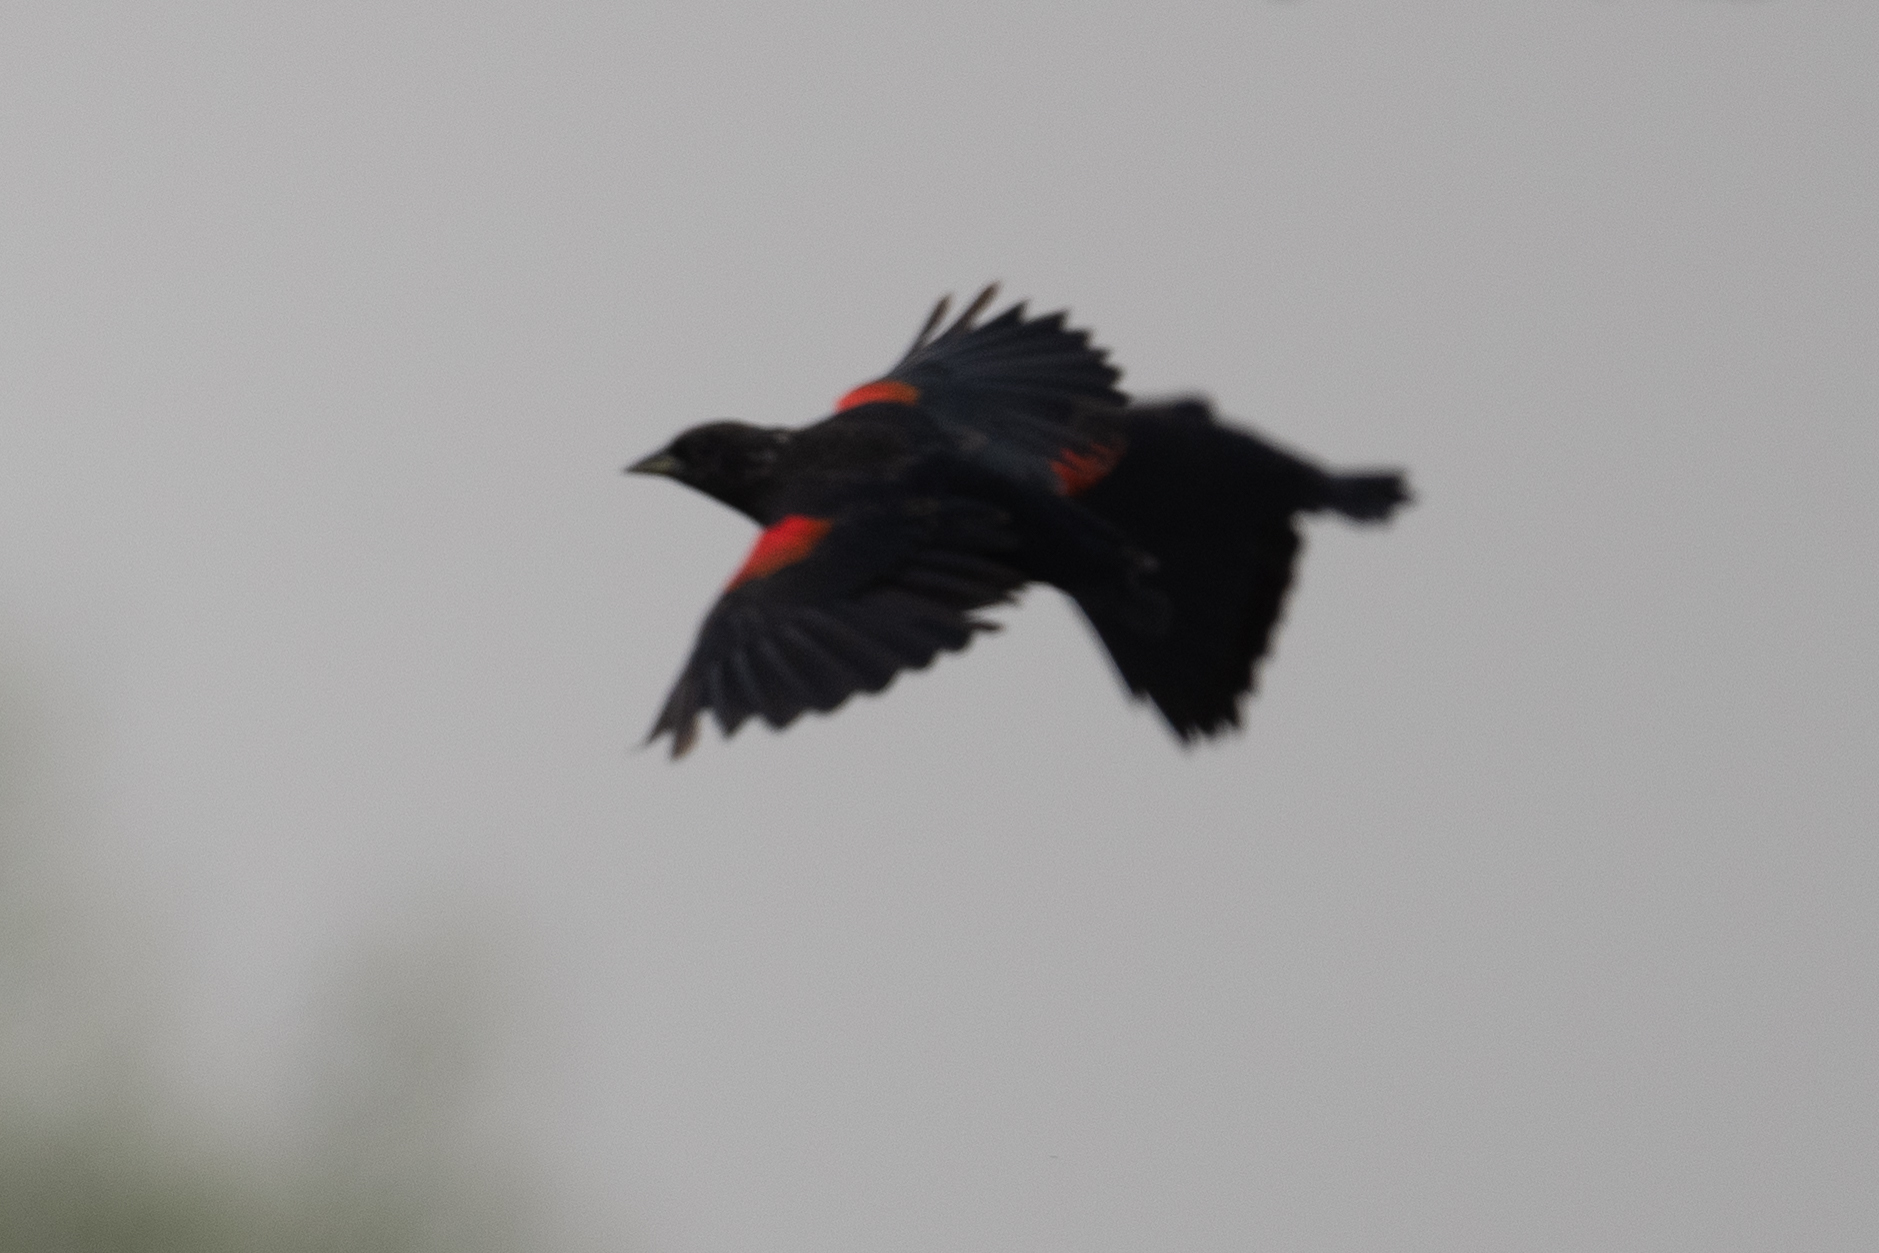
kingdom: Animalia
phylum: Chordata
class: Aves
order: Passeriformes
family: Icteridae
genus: Agelaius
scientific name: Agelaius phoeniceus
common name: Red-winged blackbird
